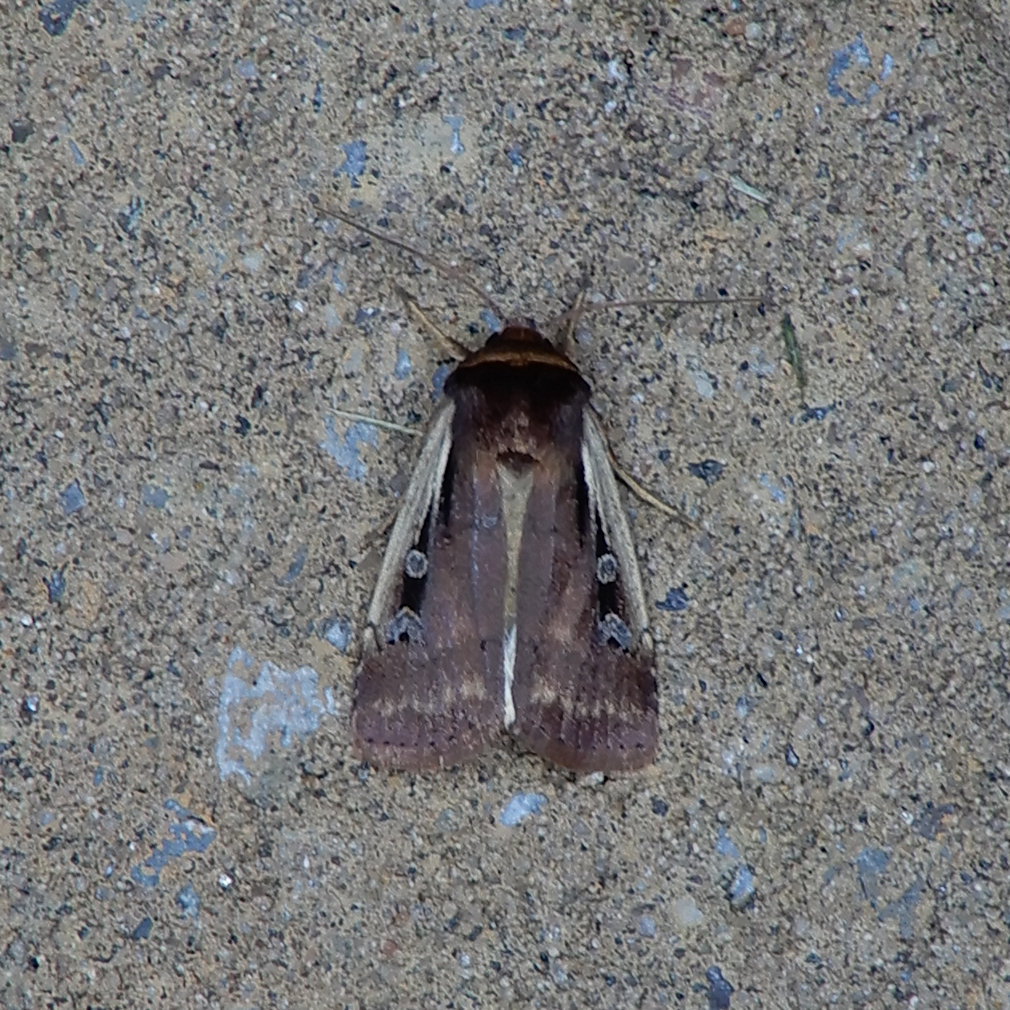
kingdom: Animalia
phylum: Arthropoda
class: Insecta
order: Lepidoptera
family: Noctuidae
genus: Ochropleura
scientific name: Ochropleura implecta
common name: Flame-shouldered dart
